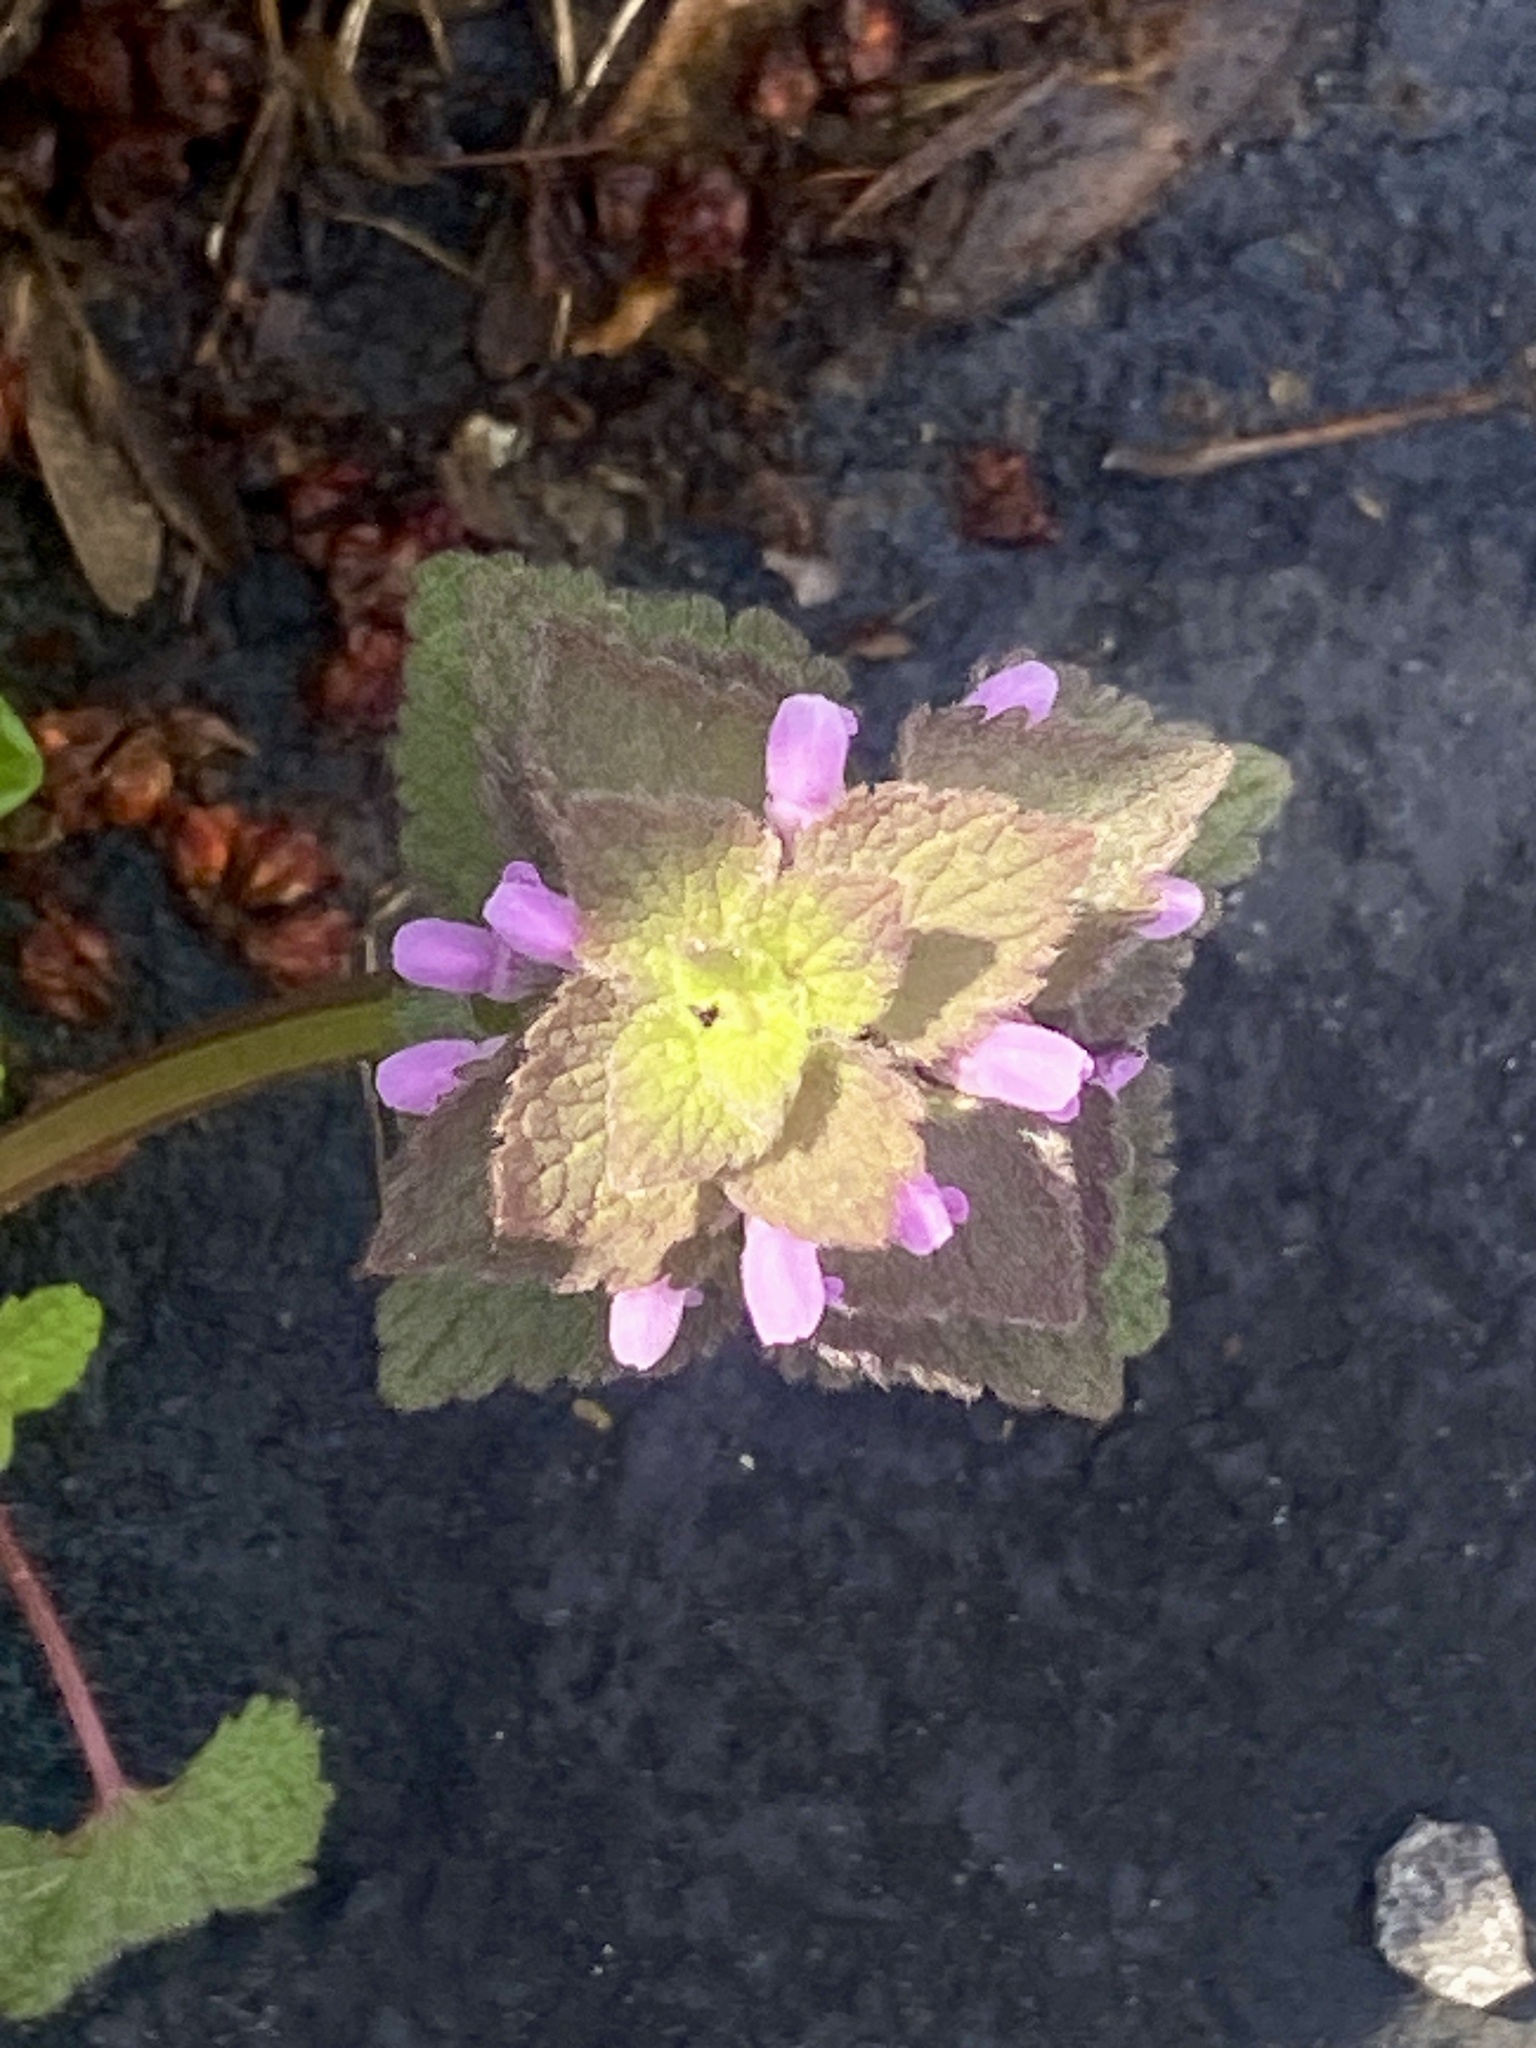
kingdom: Plantae
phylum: Tracheophyta
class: Magnoliopsida
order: Lamiales
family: Lamiaceae
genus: Lamium
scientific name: Lamium purpureum
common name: Red dead-nettle
